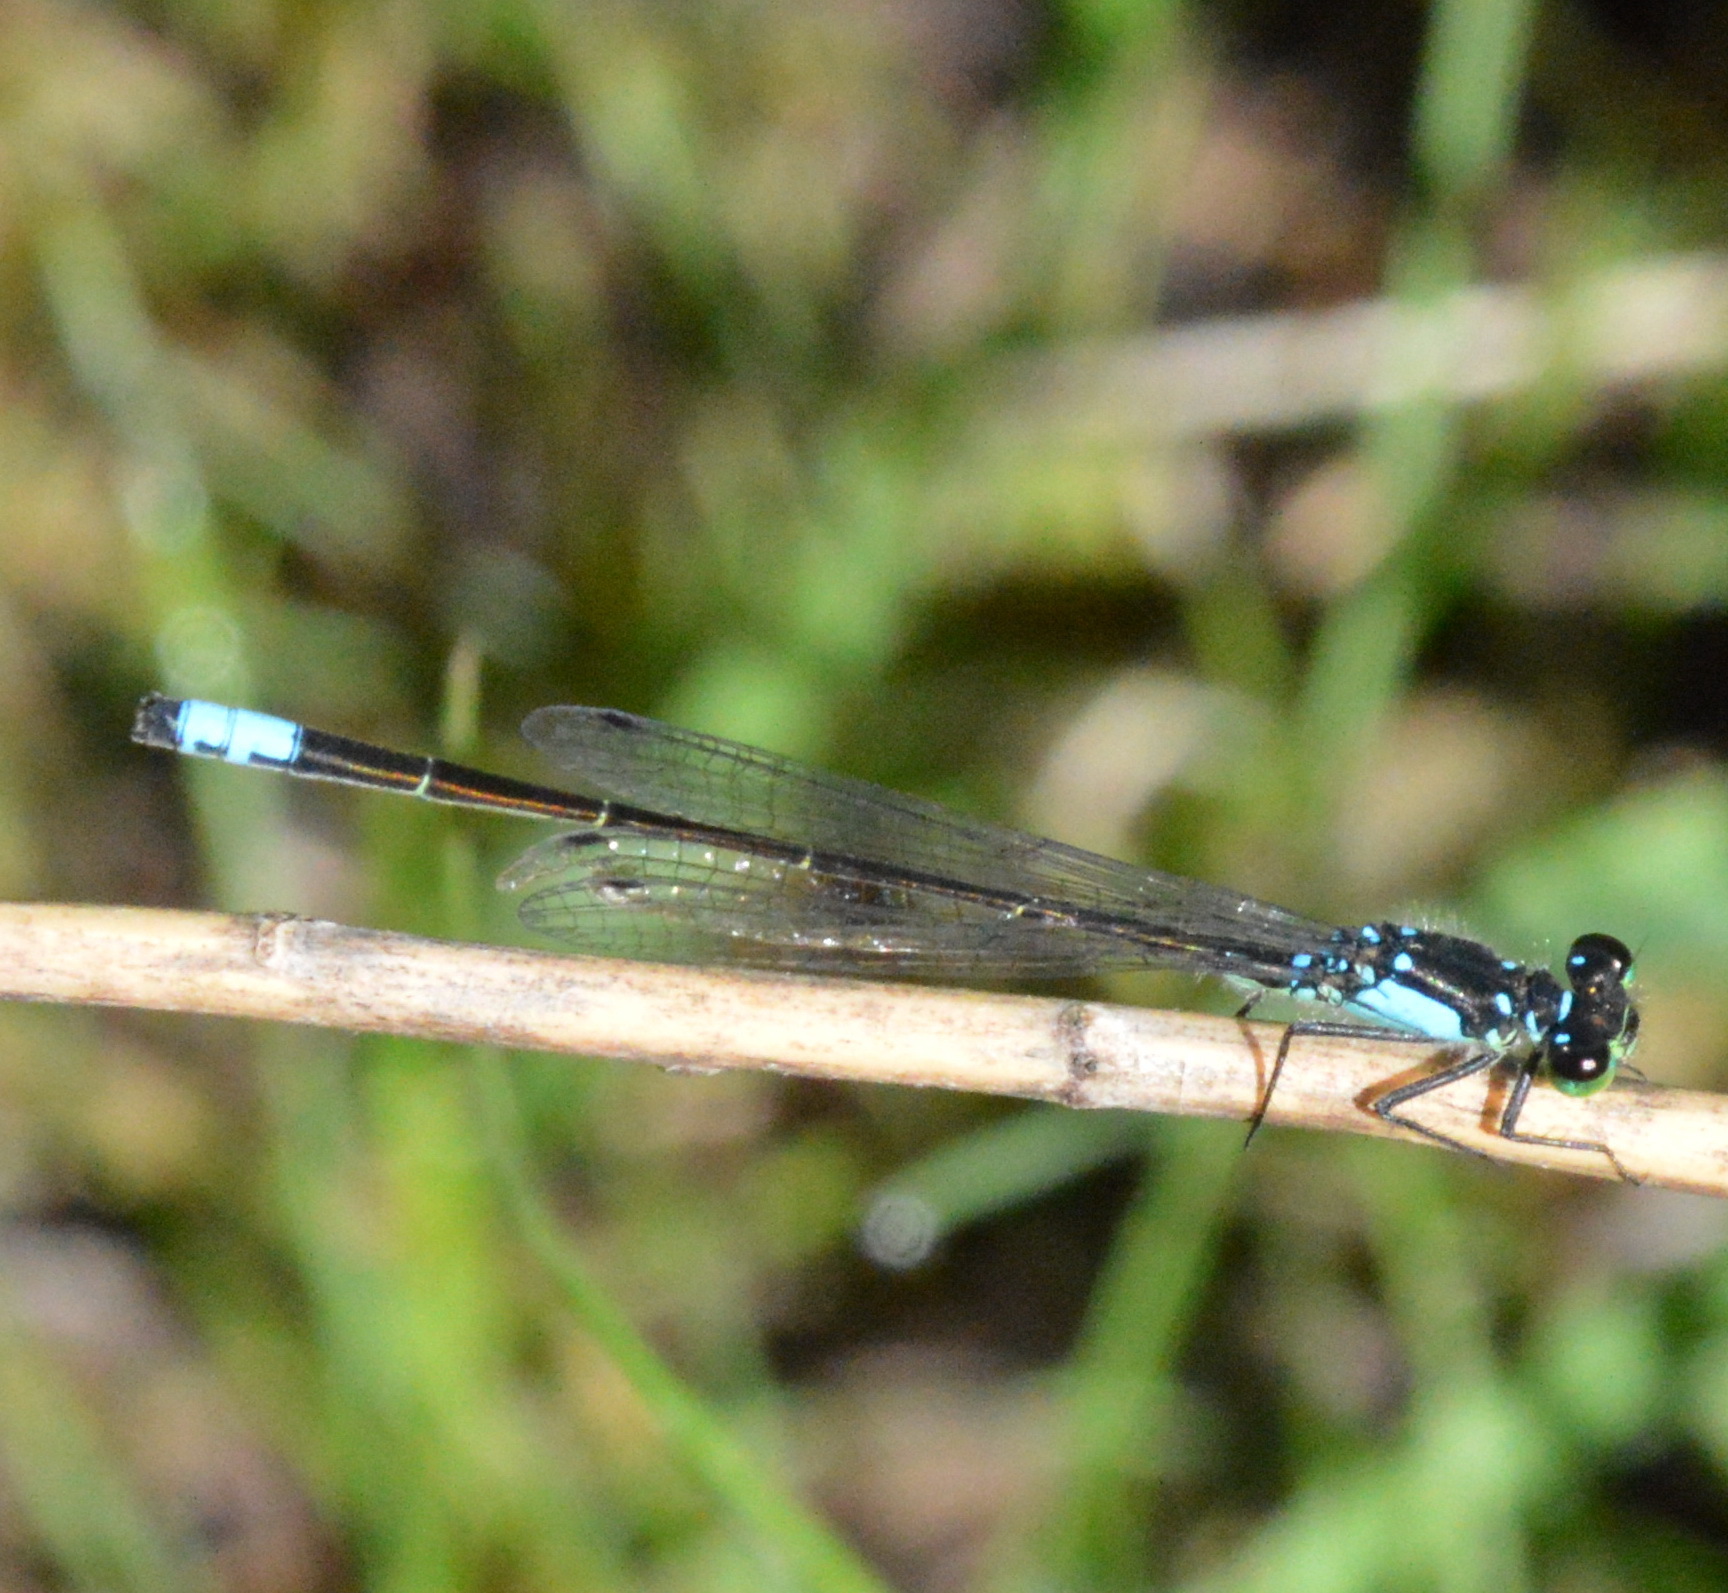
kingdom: Animalia
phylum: Arthropoda
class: Insecta
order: Odonata
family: Coenagrionidae
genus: Ischnura
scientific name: Ischnura cervula
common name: Pacific forktail
